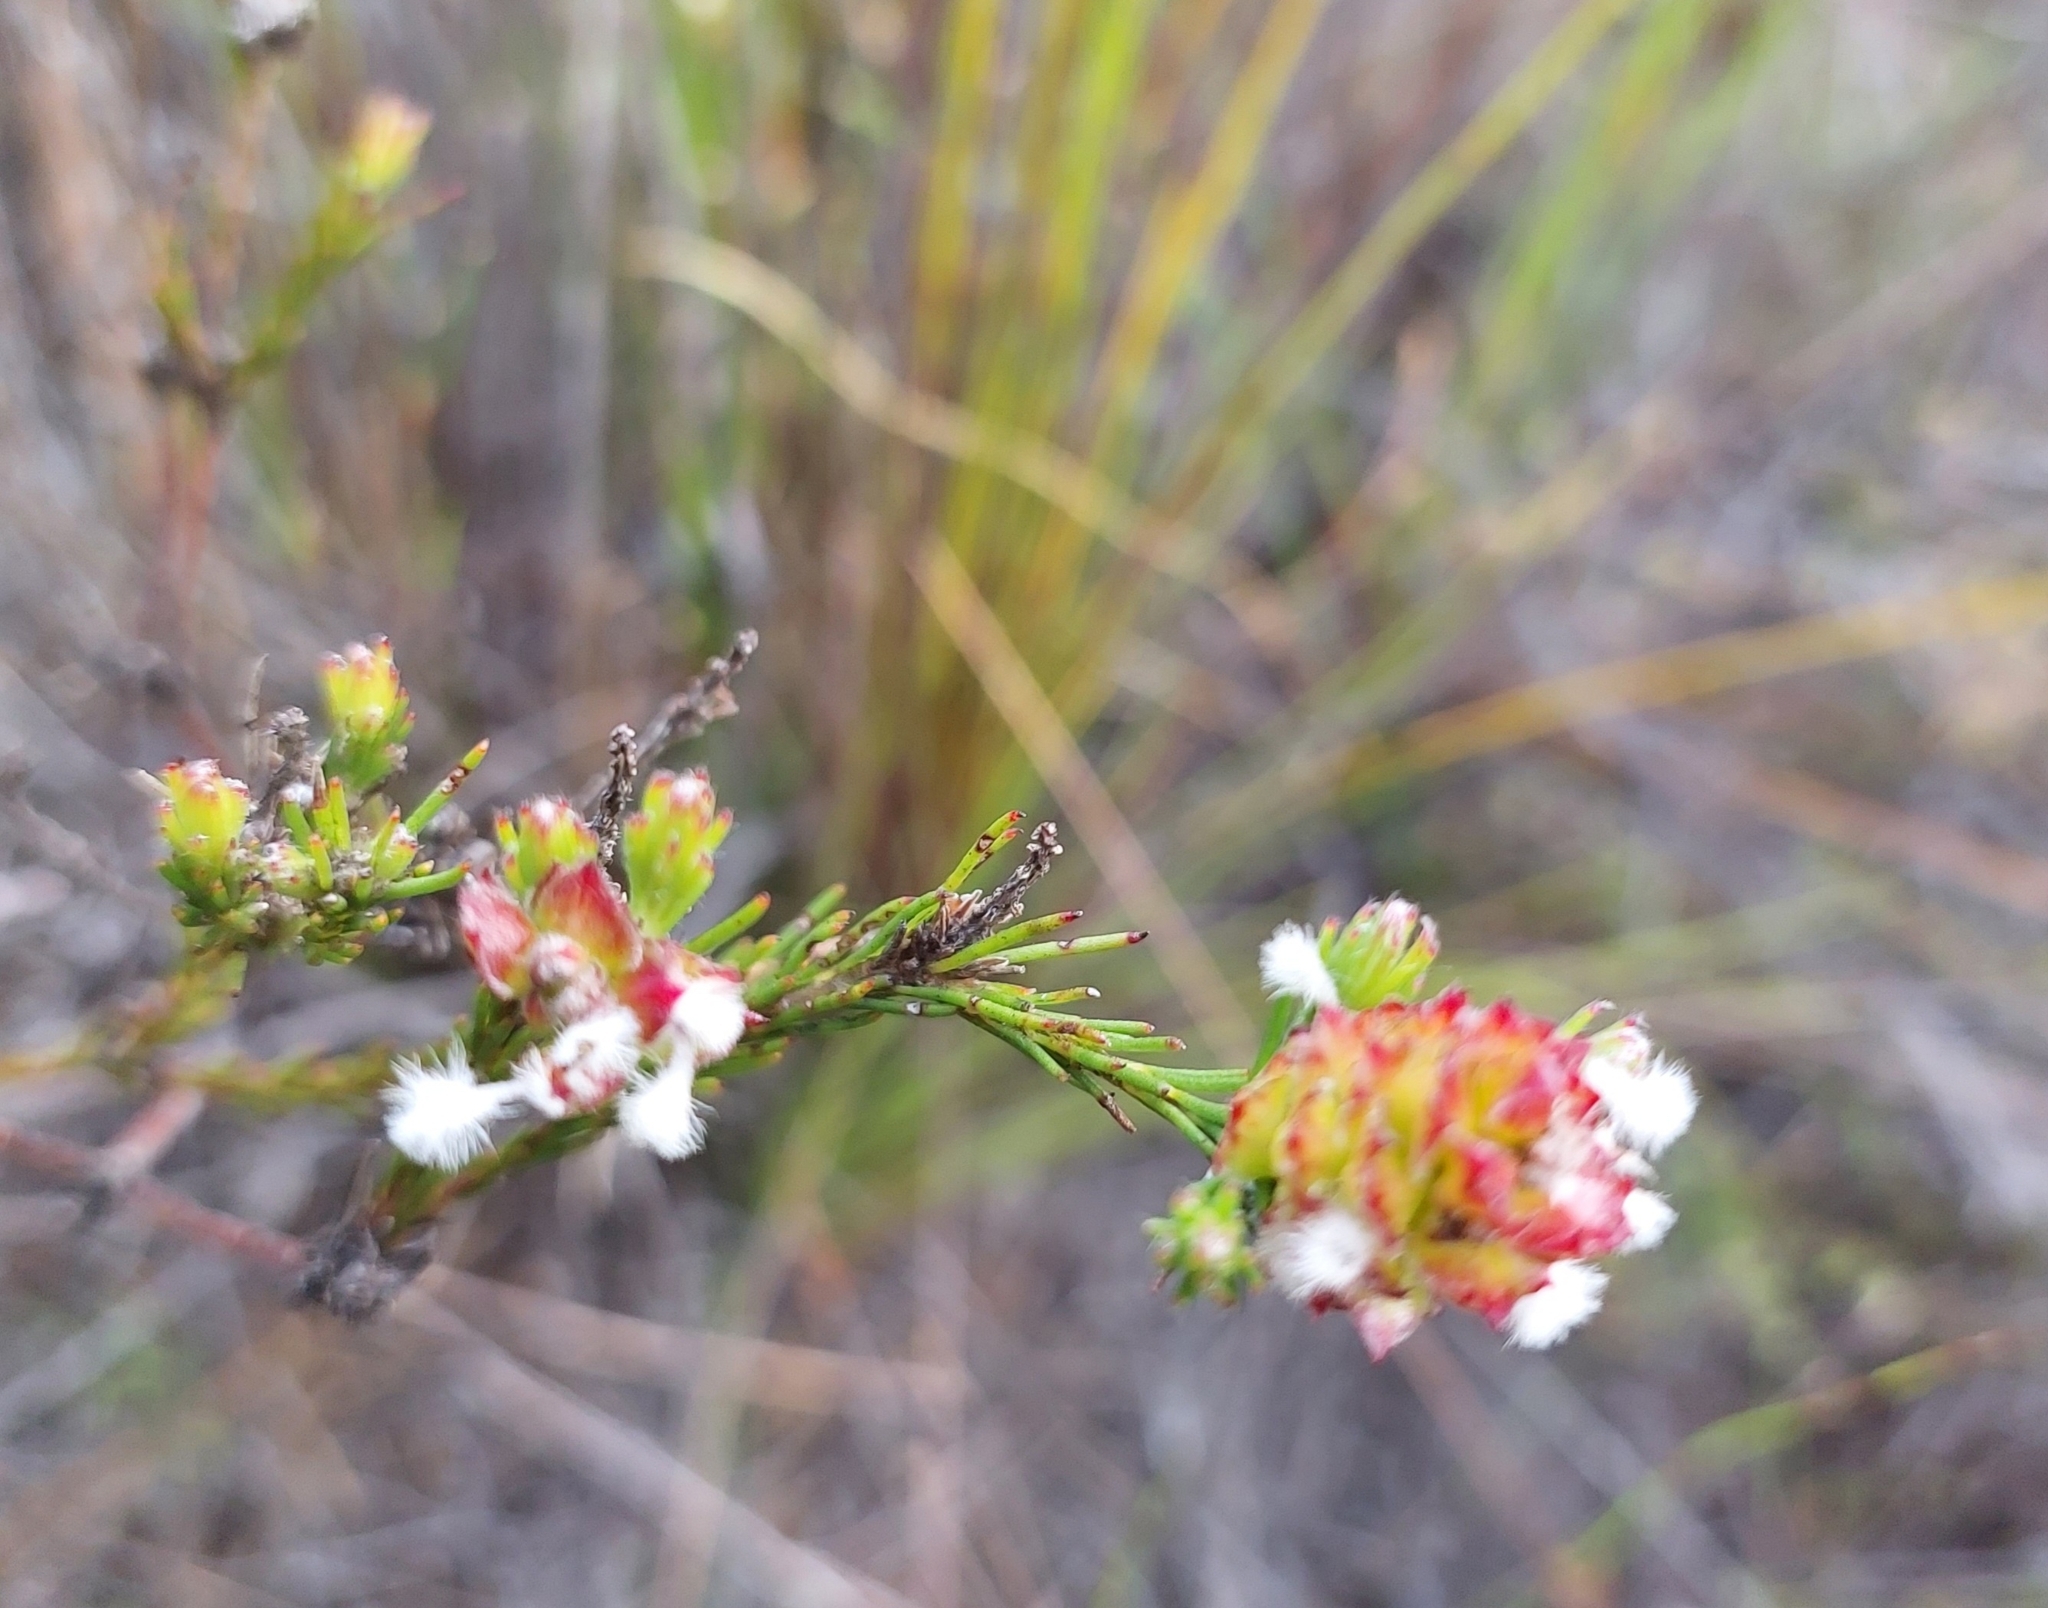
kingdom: Plantae
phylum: Tracheophyta
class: Magnoliopsida
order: Proteales
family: Proteaceae
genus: Spatalla
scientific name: Spatalla squamata
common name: Silky spoon
